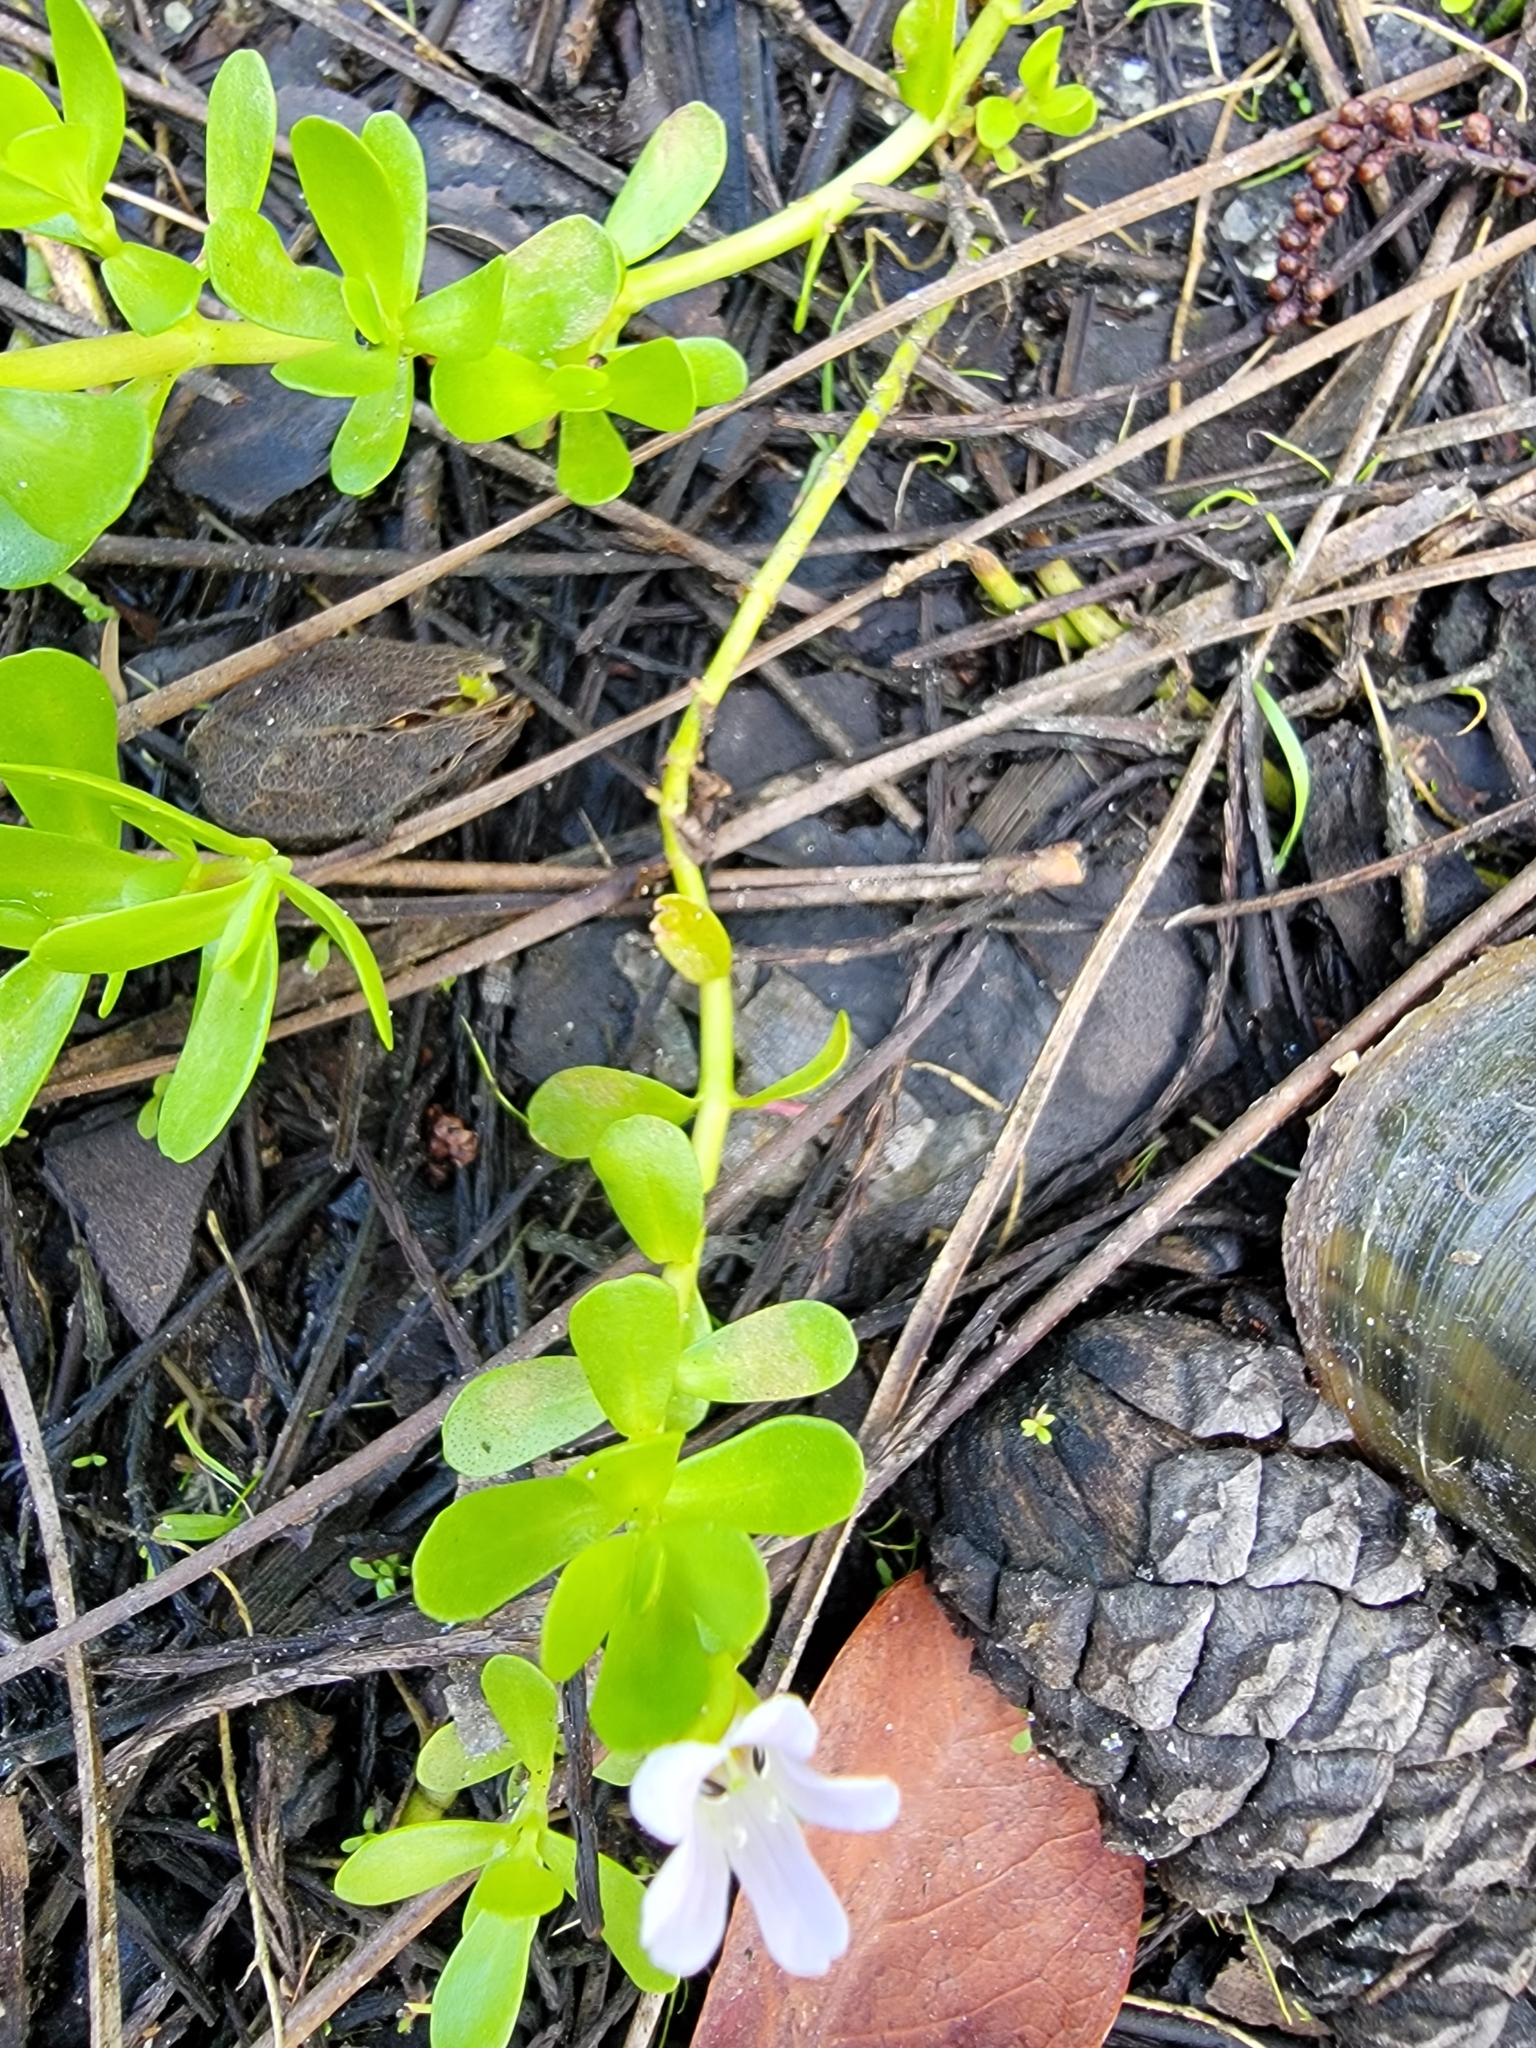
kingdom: Plantae
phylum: Tracheophyta
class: Magnoliopsida
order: Lamiales
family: Plantaginaceae
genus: Bacopa
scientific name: Bacopa monnieri
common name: Indian-pennywort
